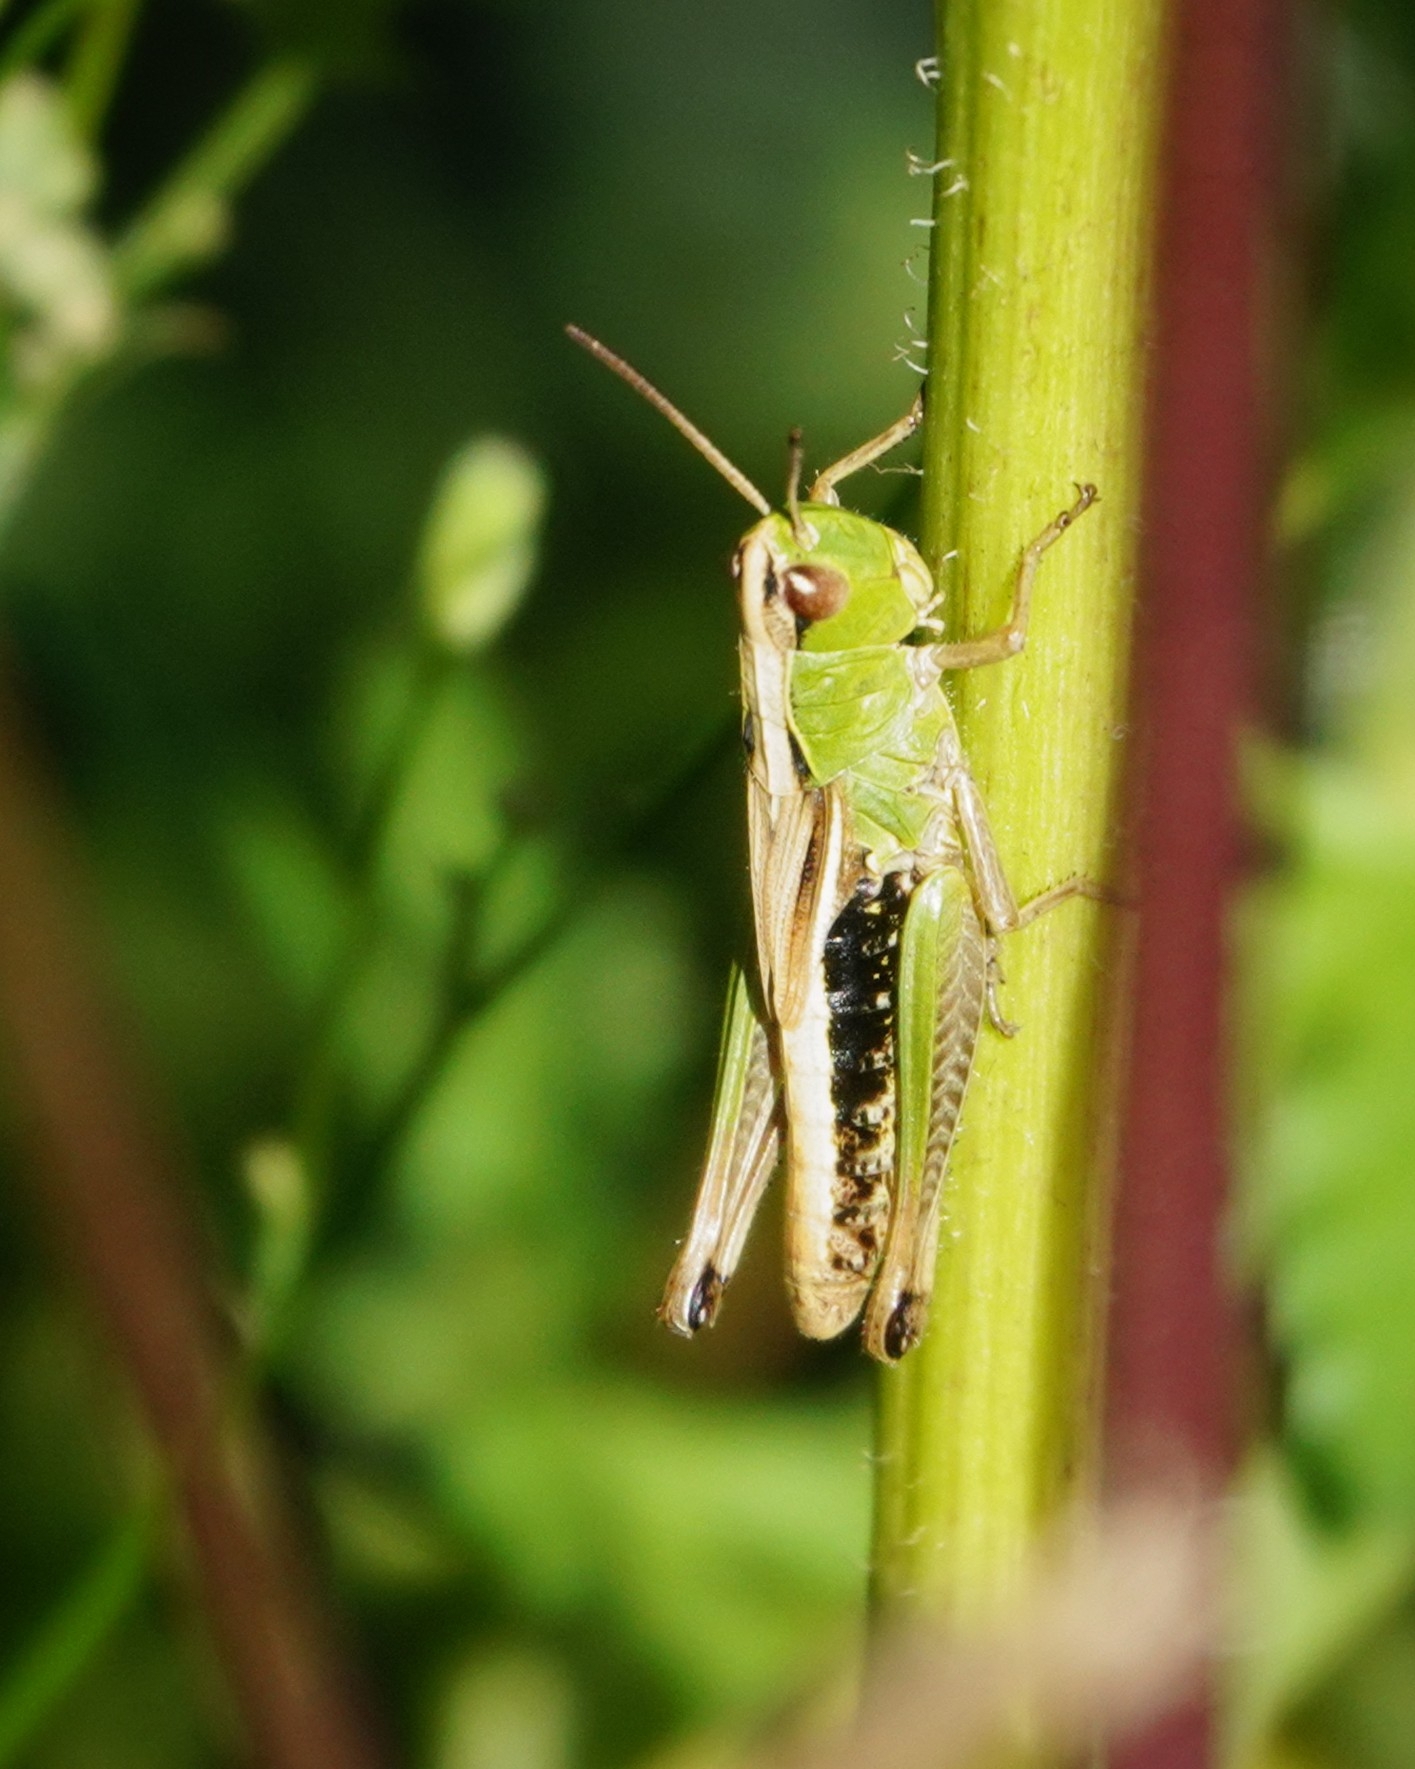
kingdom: Animalia
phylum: Arthropoda
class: Insecta
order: Orthoptera
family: Acrididae
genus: Pseudochorthippus
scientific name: Pseudochorthippus parallelus
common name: Meadow grasshopper
